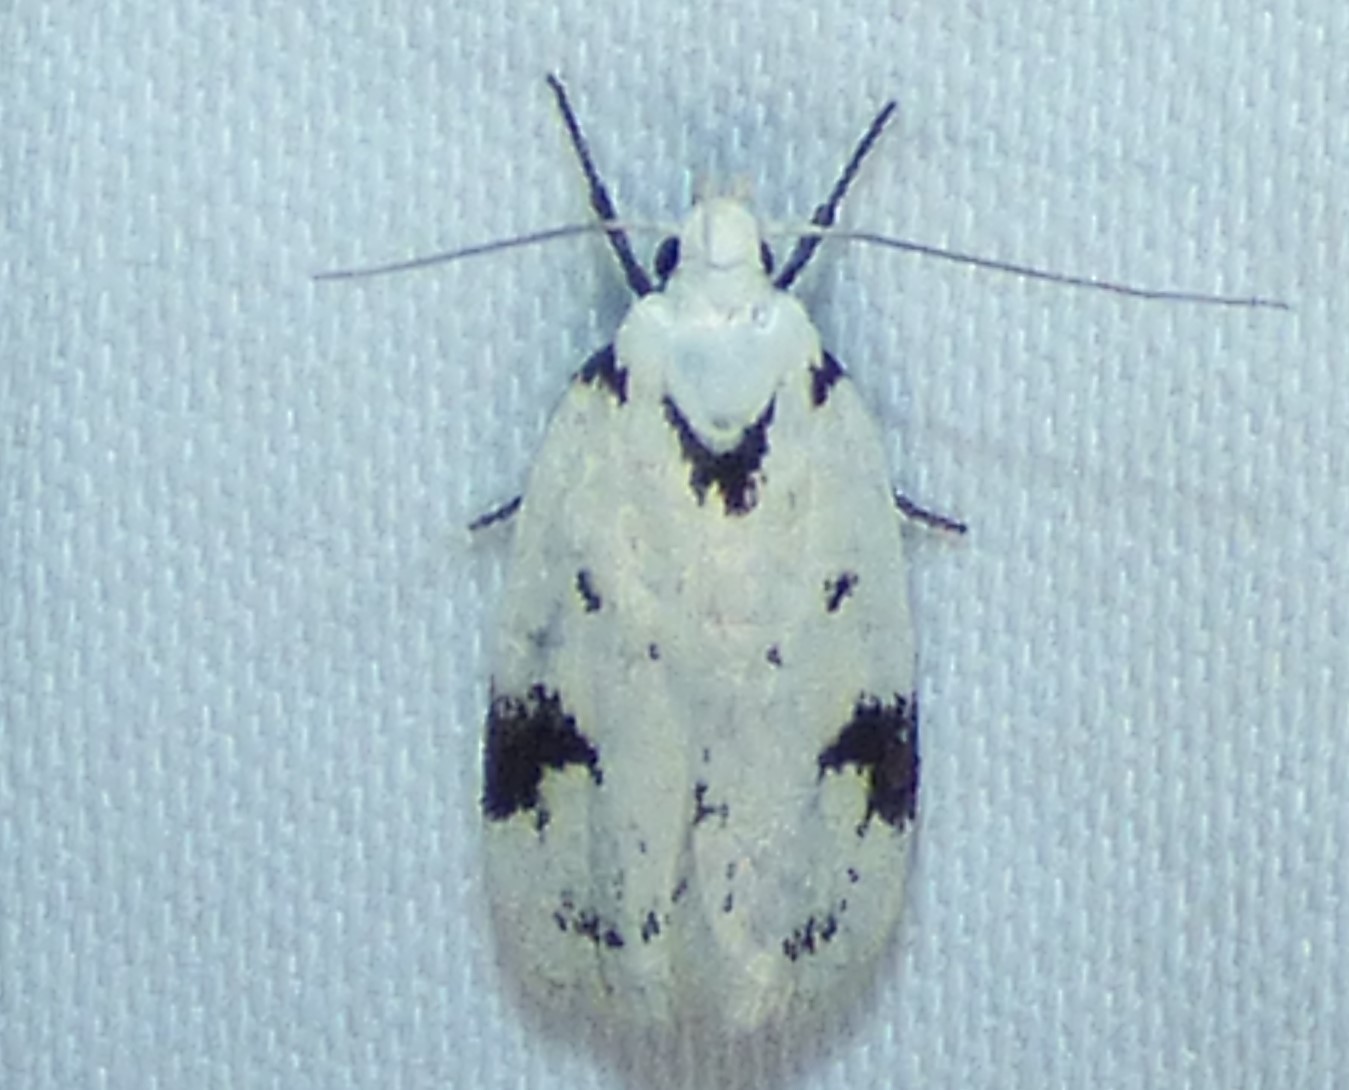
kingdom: Animalia
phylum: Arthropoda
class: Insecta
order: Lepidoptera
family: Oecophoridae
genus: Inga
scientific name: Inga sparsiciliella
